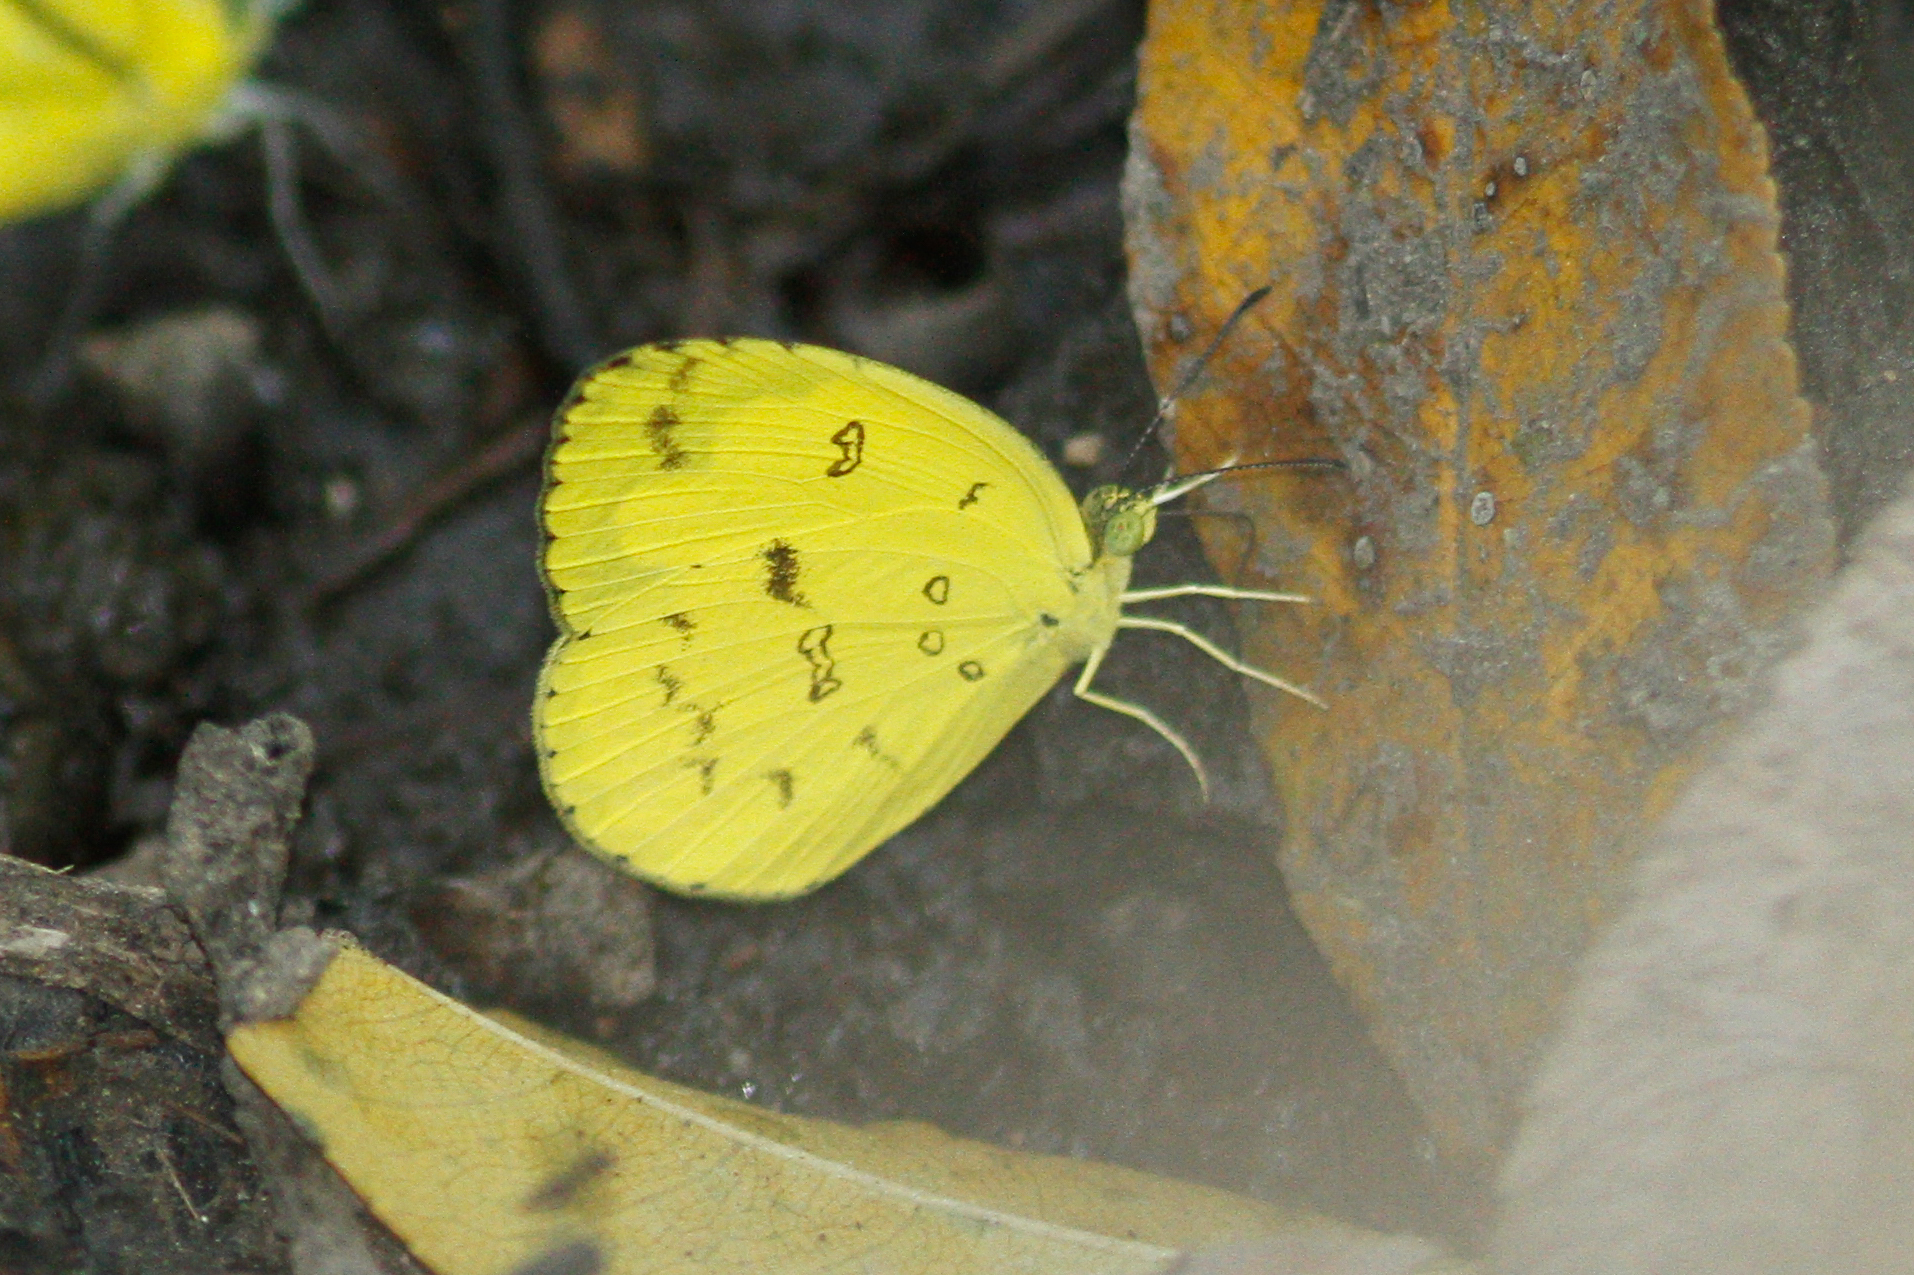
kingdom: Animalia
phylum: Arthropoda
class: Insecta
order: Lepidoptera
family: Pieridae
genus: Eurema
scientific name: Eurema hecabe
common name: Pale grass yellow
